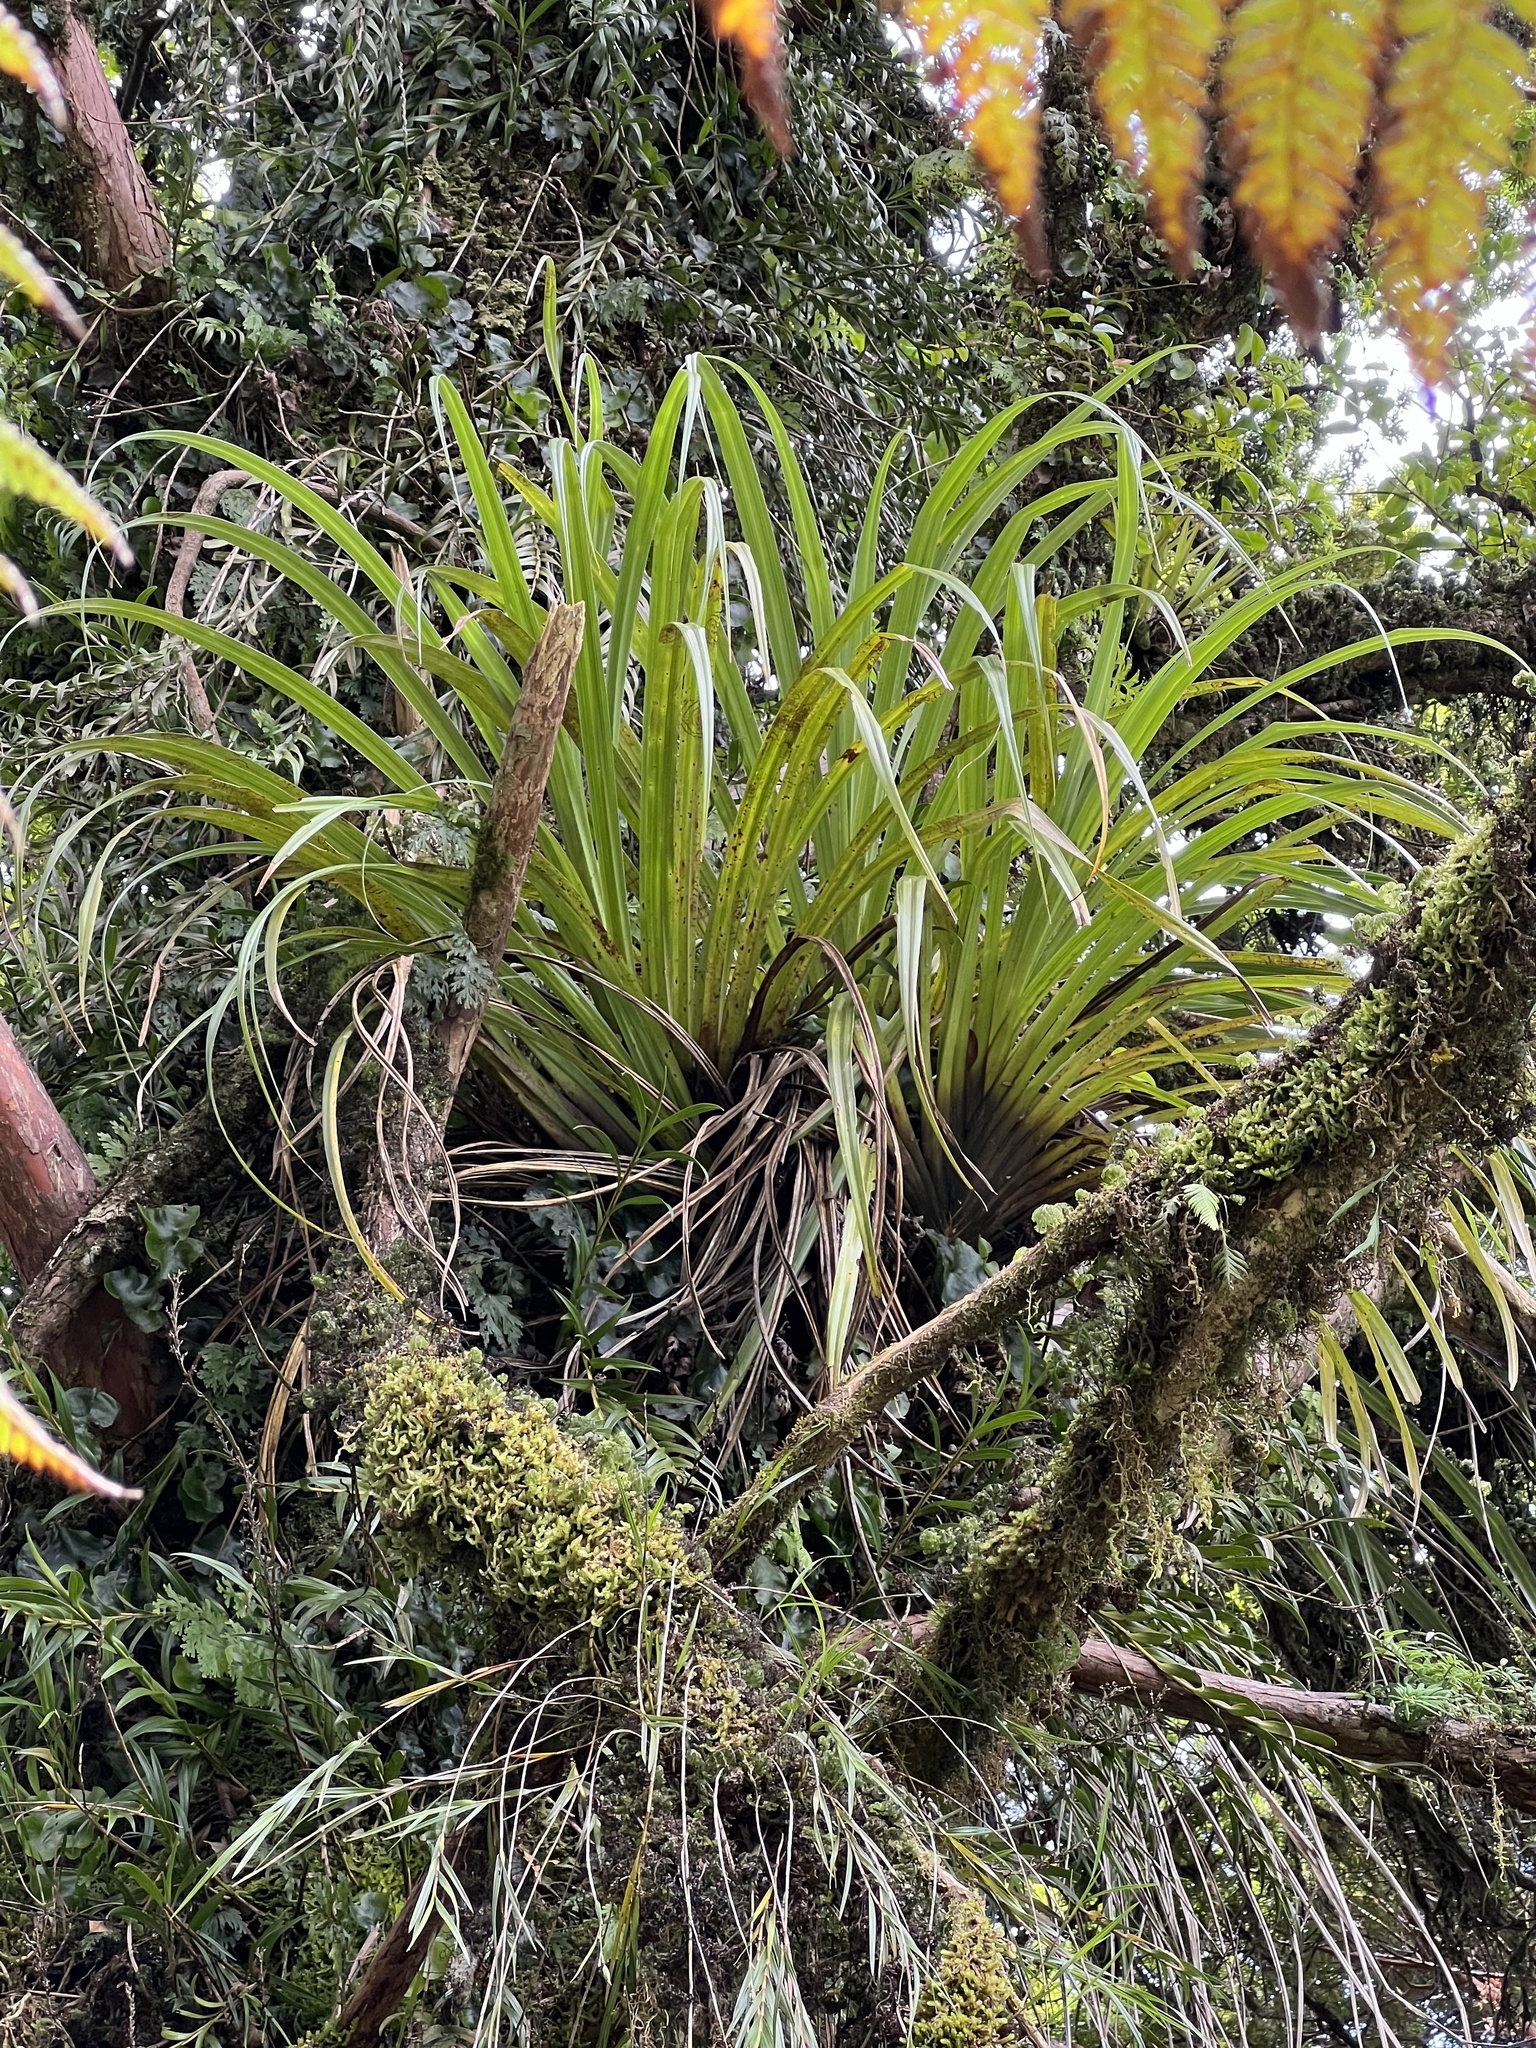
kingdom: Plantae
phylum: Tracheophyta
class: Liliopsida
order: Asparagales
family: Asteliaceae
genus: Astelia
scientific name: Astelia microsperma
